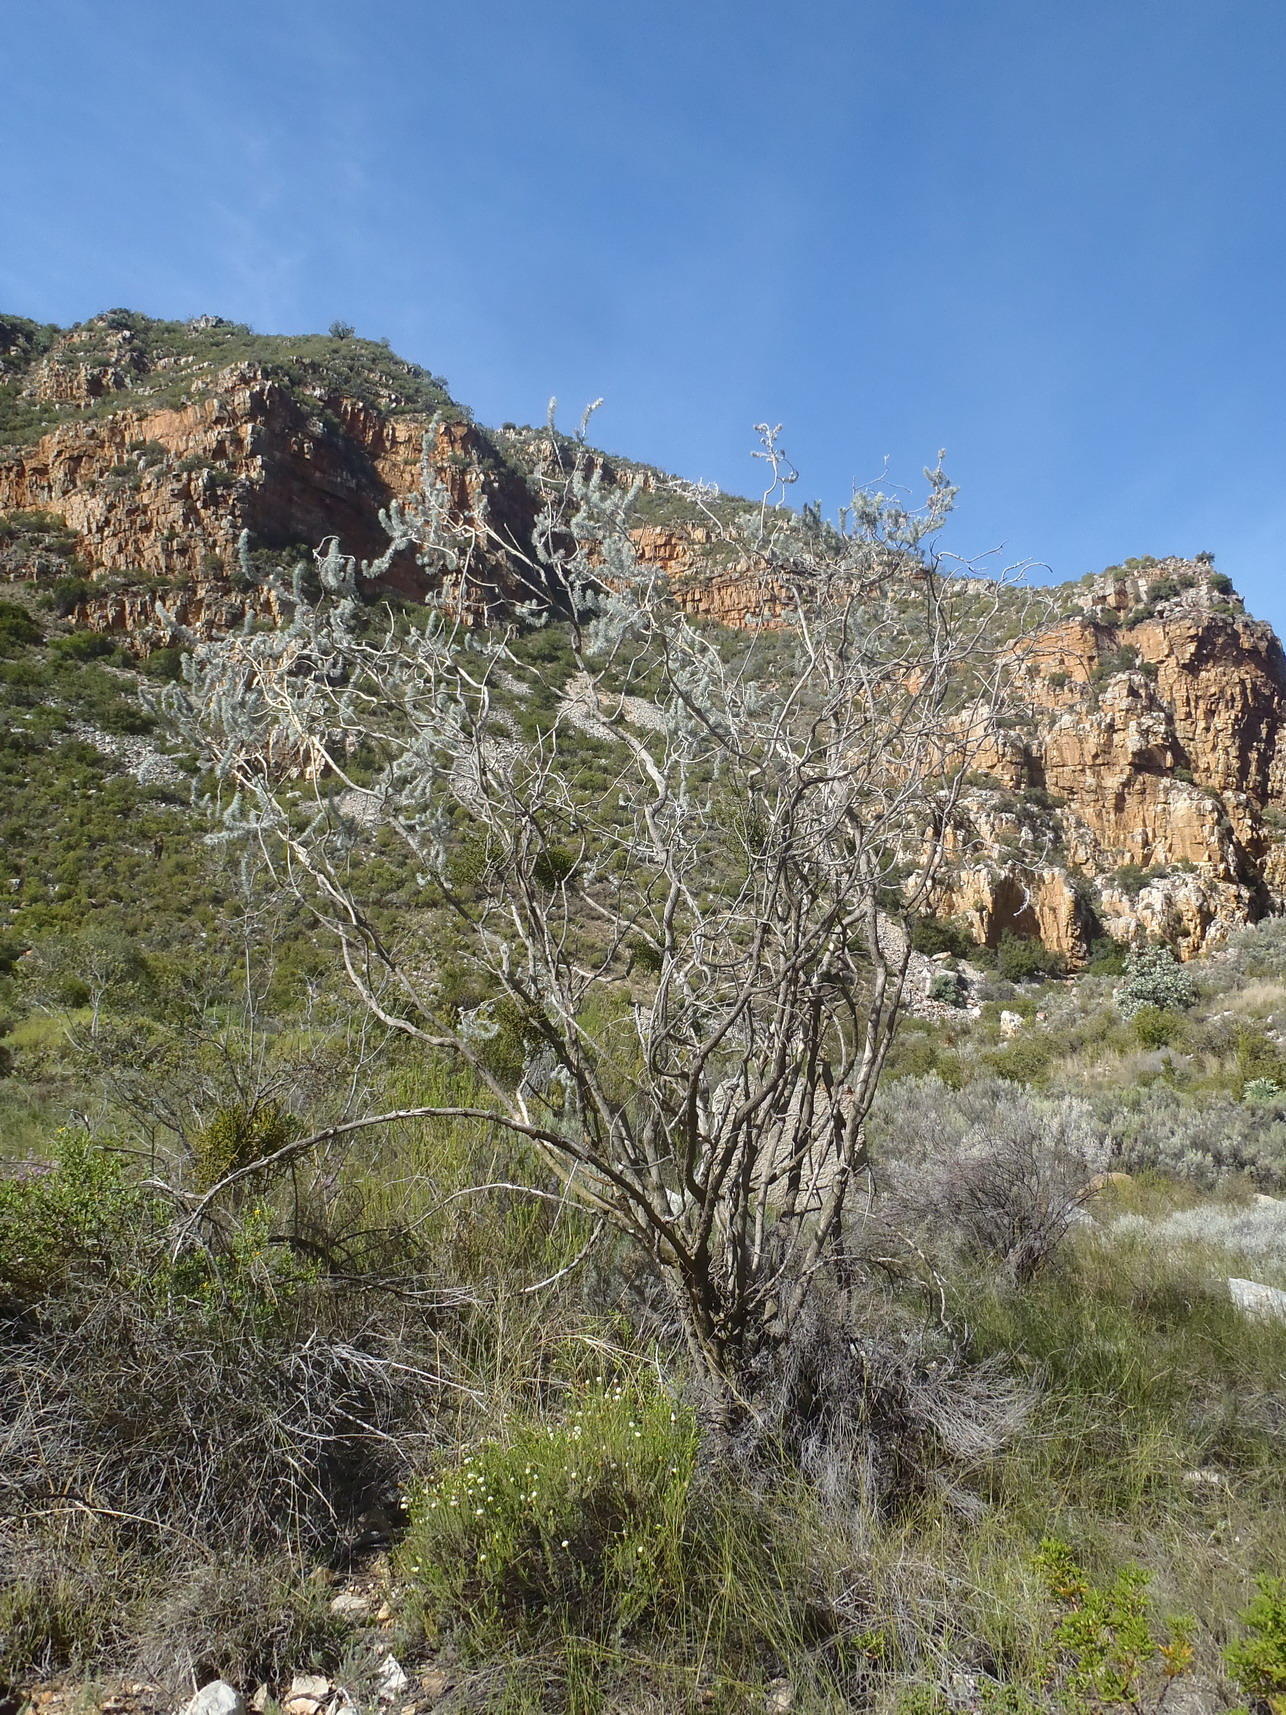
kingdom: Plantae
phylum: Tracheophyta
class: Magnoliopsida
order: Fabales
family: Fabaceae
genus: Aspalathus
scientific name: Aspalathus hystrix
